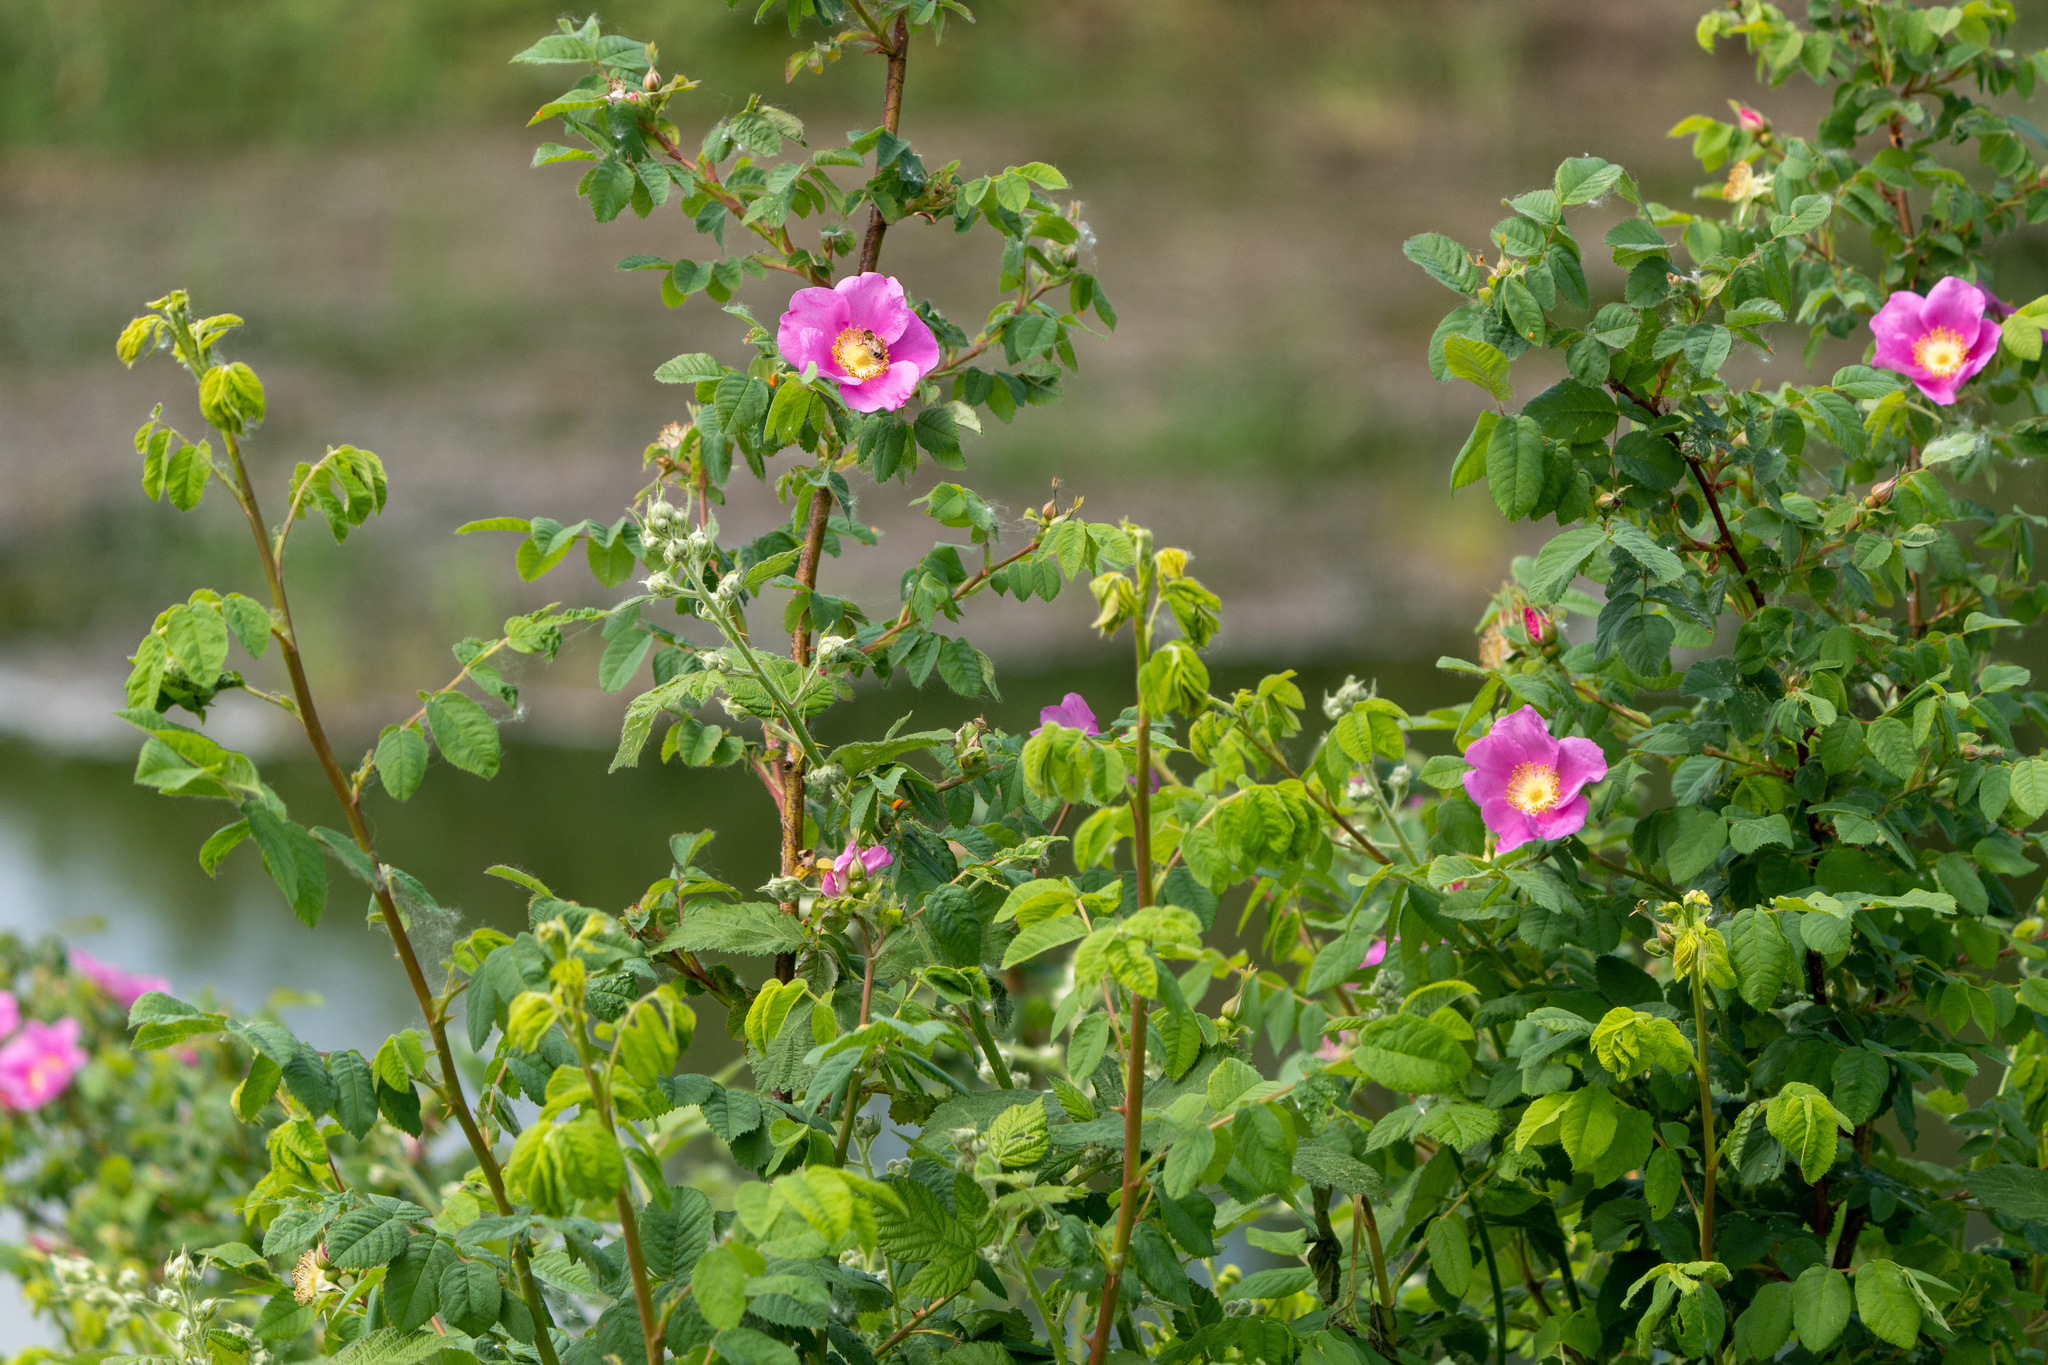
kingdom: Plantae
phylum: Tracheophyta
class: Magnoliopsida
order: Rosales
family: Rosaceae
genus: Rosa
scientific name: Rosa nutkana
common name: Nootka rose
